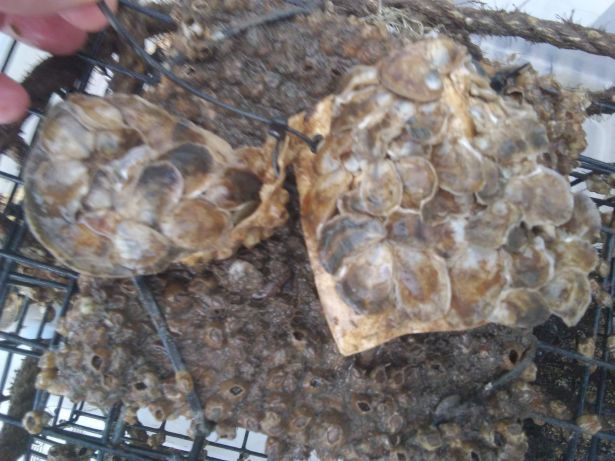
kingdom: Animalia
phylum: Mollusca
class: Bivalvia
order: Ostreida
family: Ostreidae
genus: Crassostrea
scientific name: Crassostrea virginica
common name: American oyster
